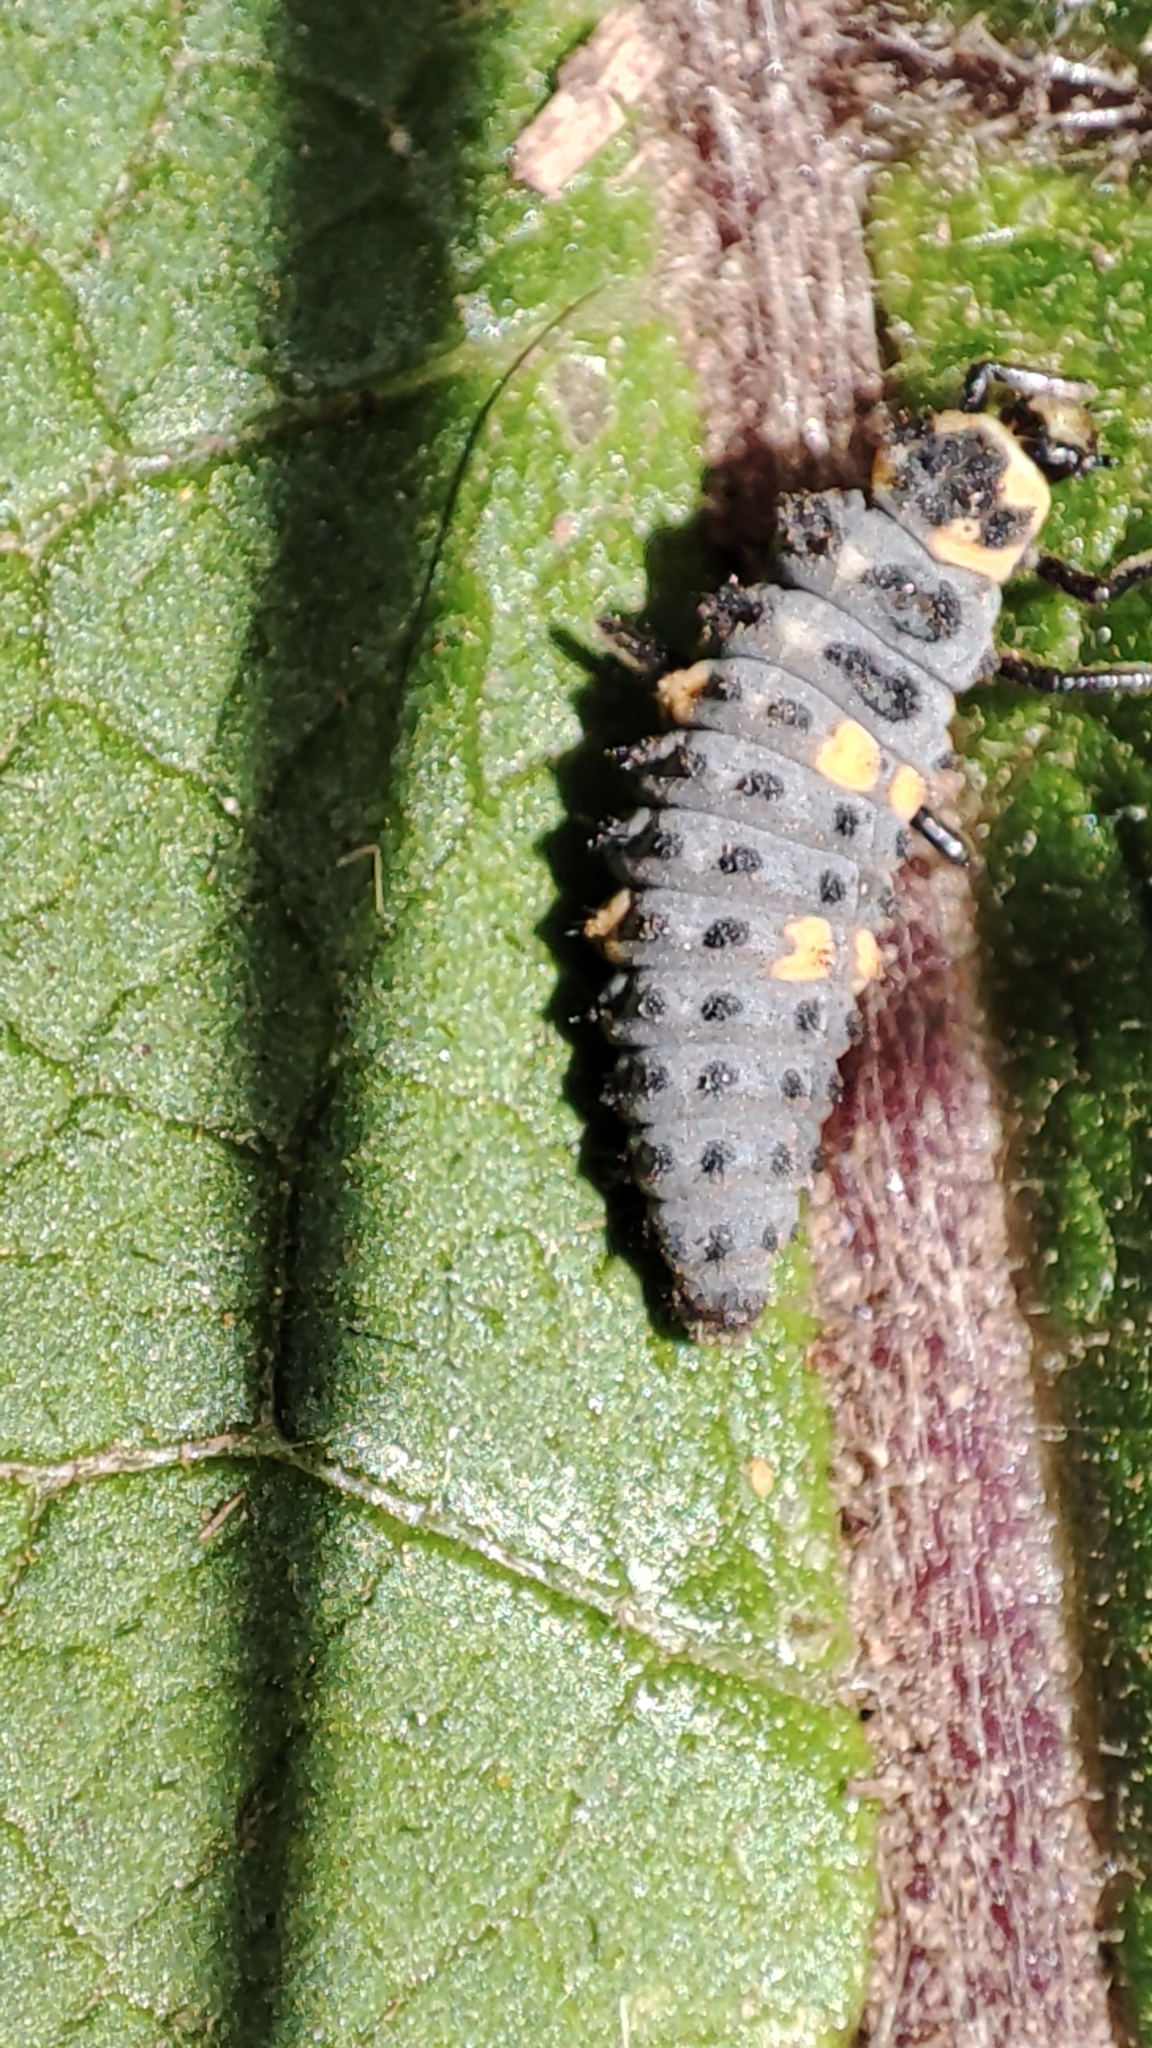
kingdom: Animalia
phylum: Arthropoda
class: Insecta
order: Coleoptera
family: Coccinellidae
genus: Coccinella
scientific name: Coccinella septempunctata
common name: Sevenspotted lady beetle
